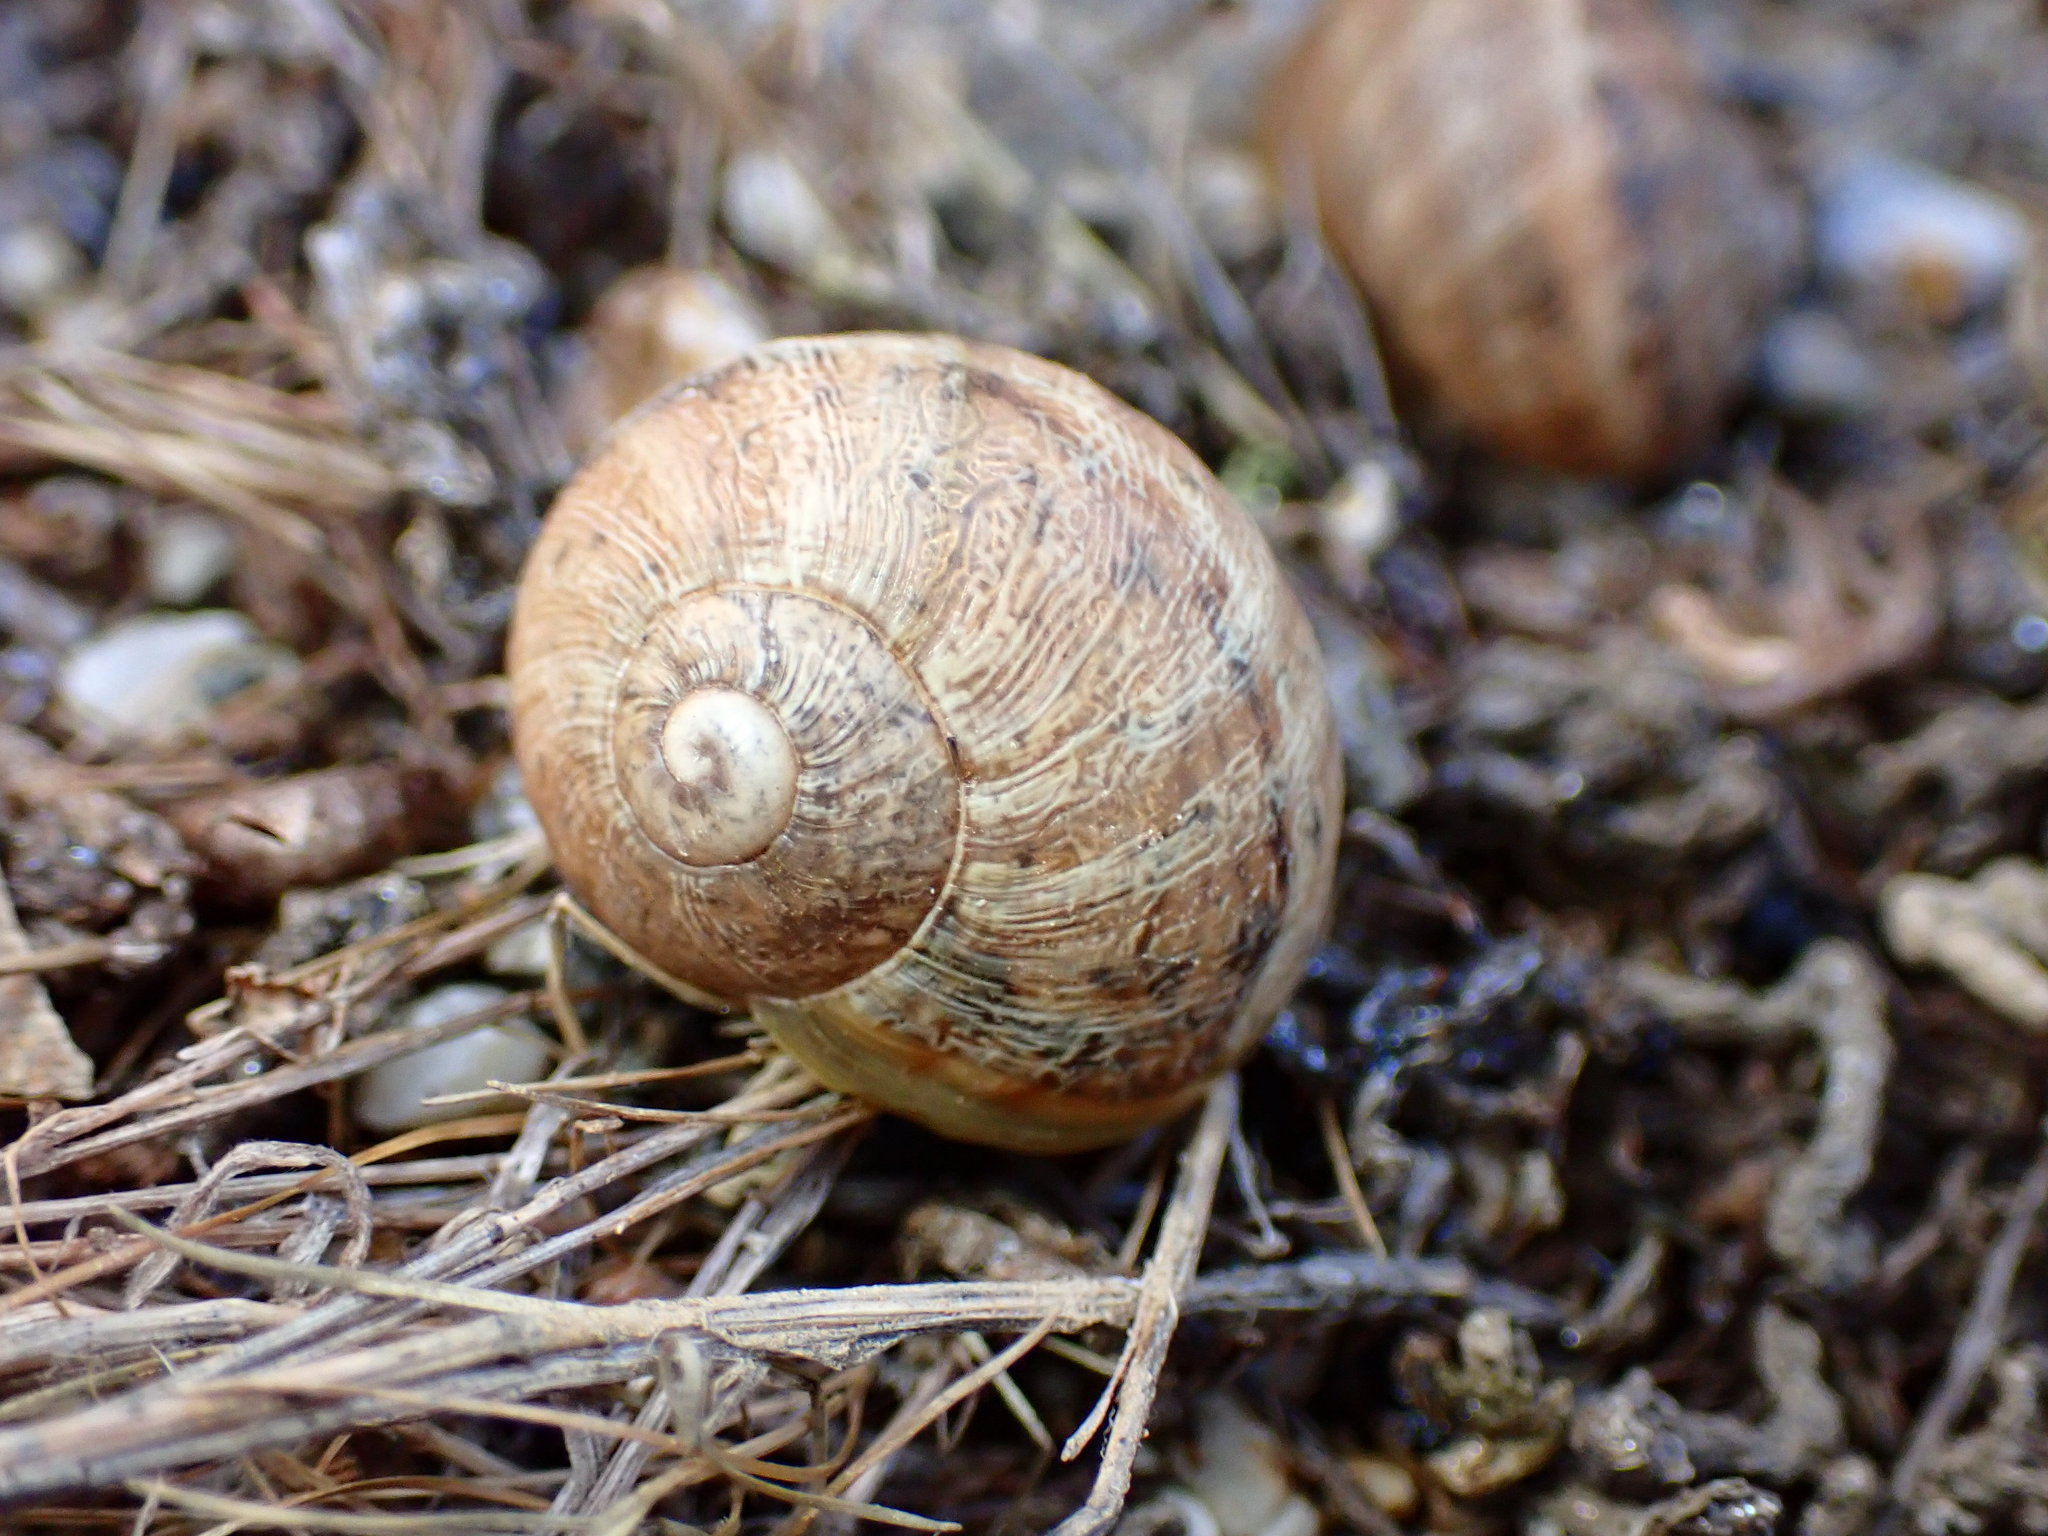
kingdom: Animalia
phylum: Mollusca
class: Gastropoda
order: Stylommatophora
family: Helicidae
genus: Cornu
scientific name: Cornu aspersum
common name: Brown garden snail
